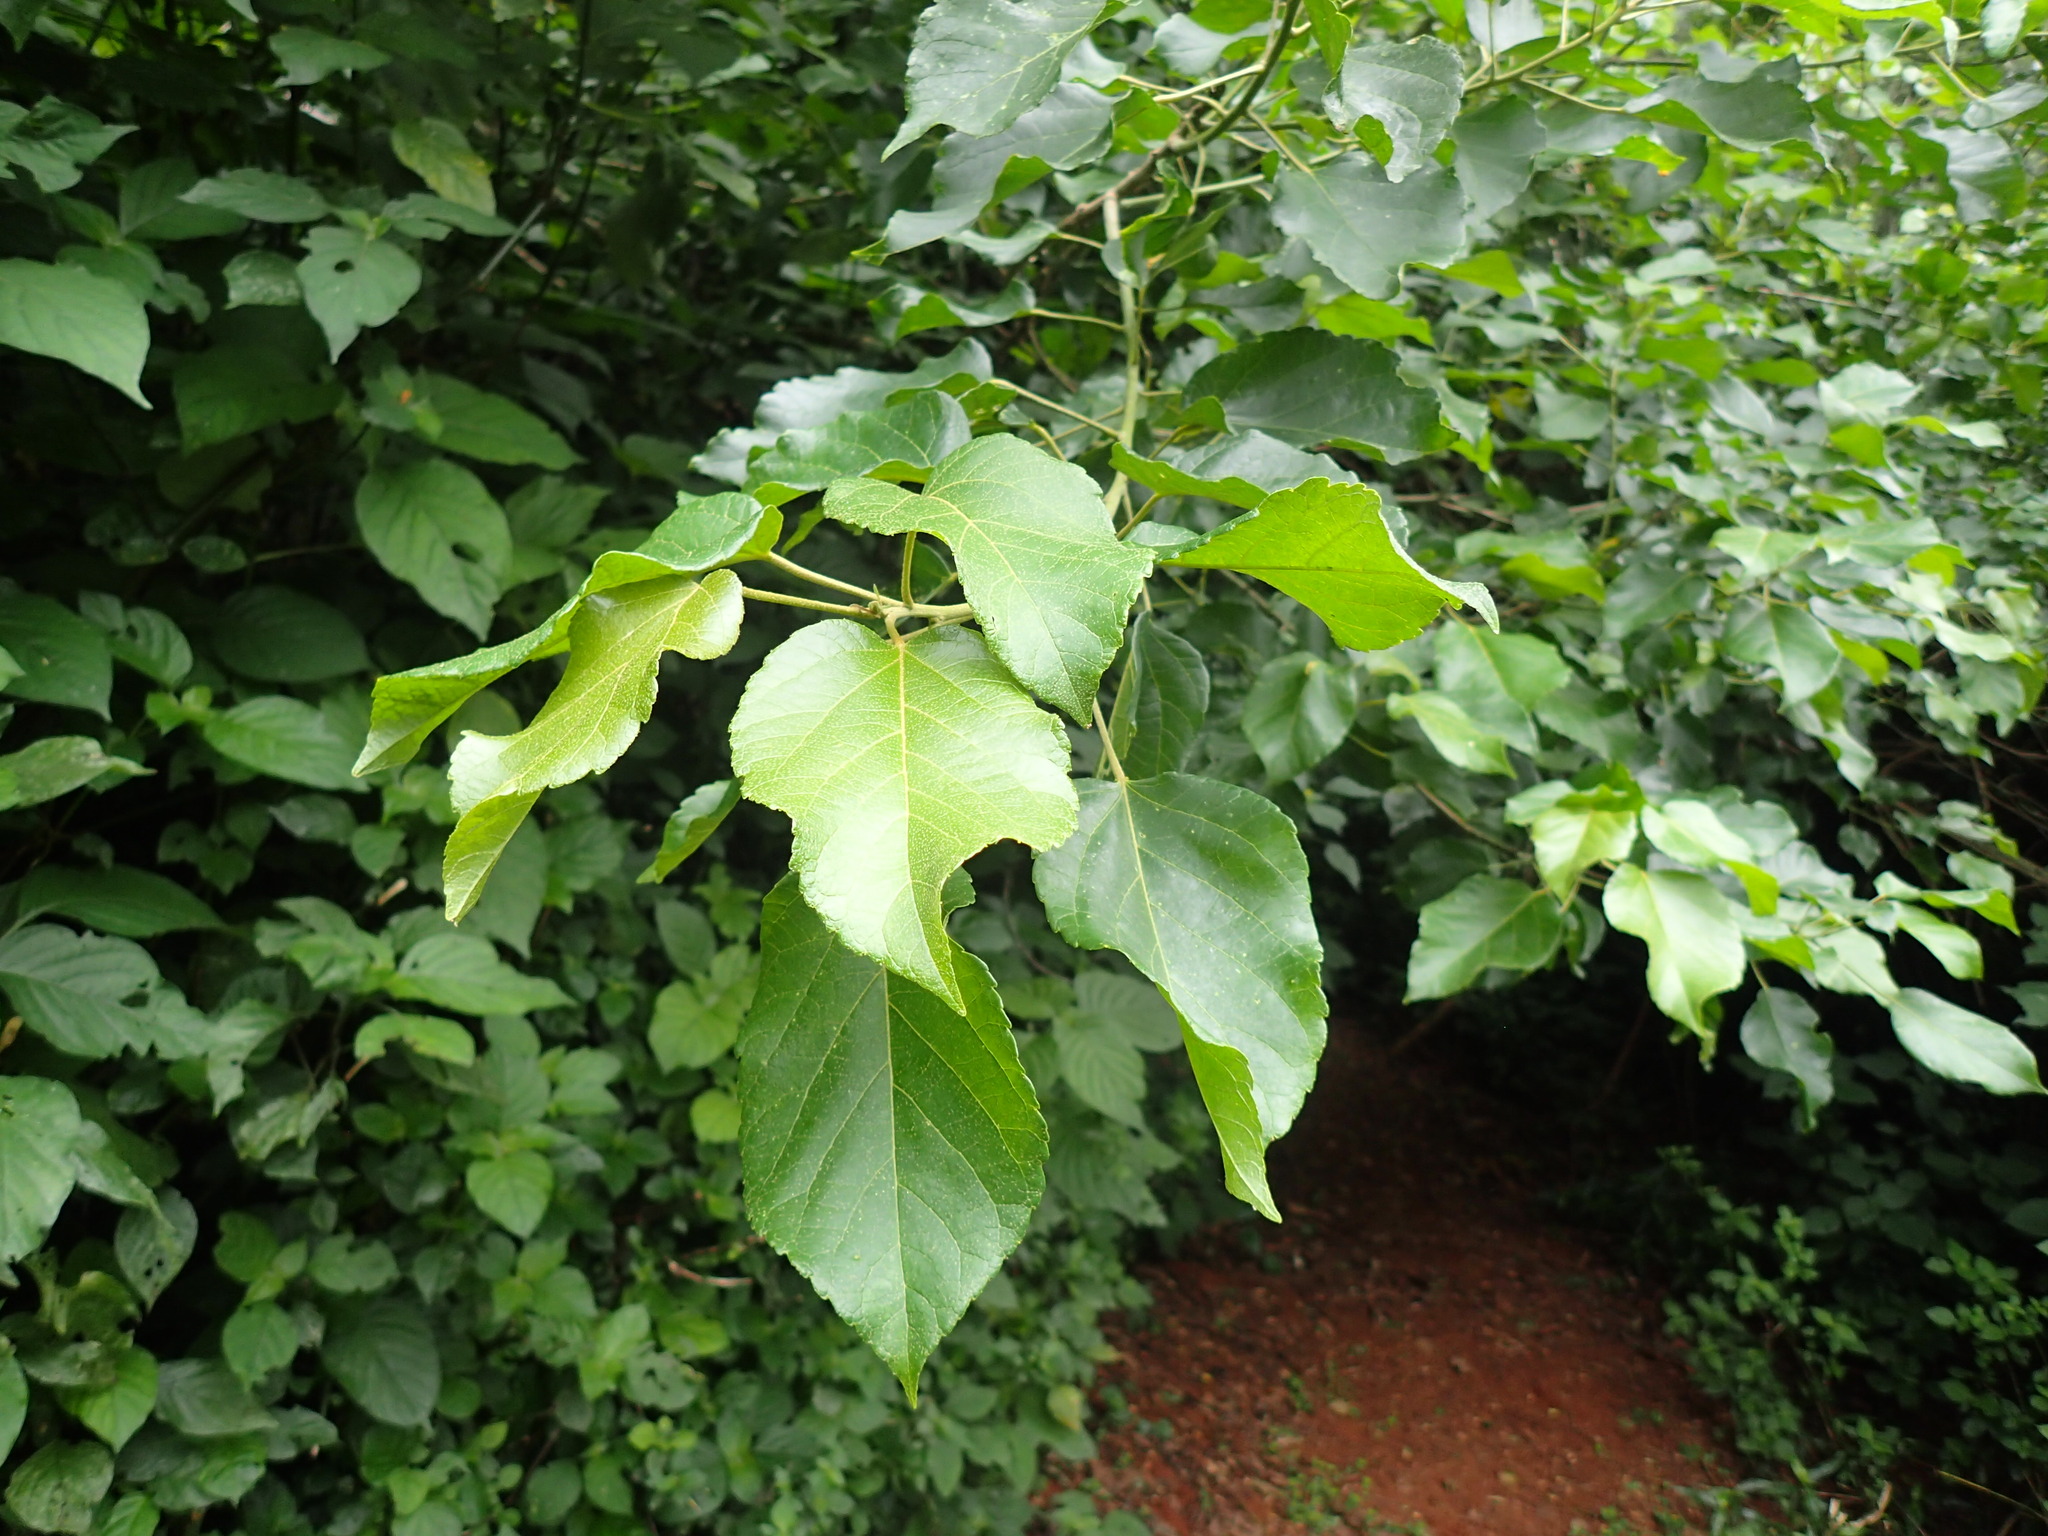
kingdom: Plantae
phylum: Tracheophyta
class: Magnoliopsida
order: Malpighiales
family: Euphorbiaceae
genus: Croton
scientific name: Croton sylvaticus
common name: Forest croton
